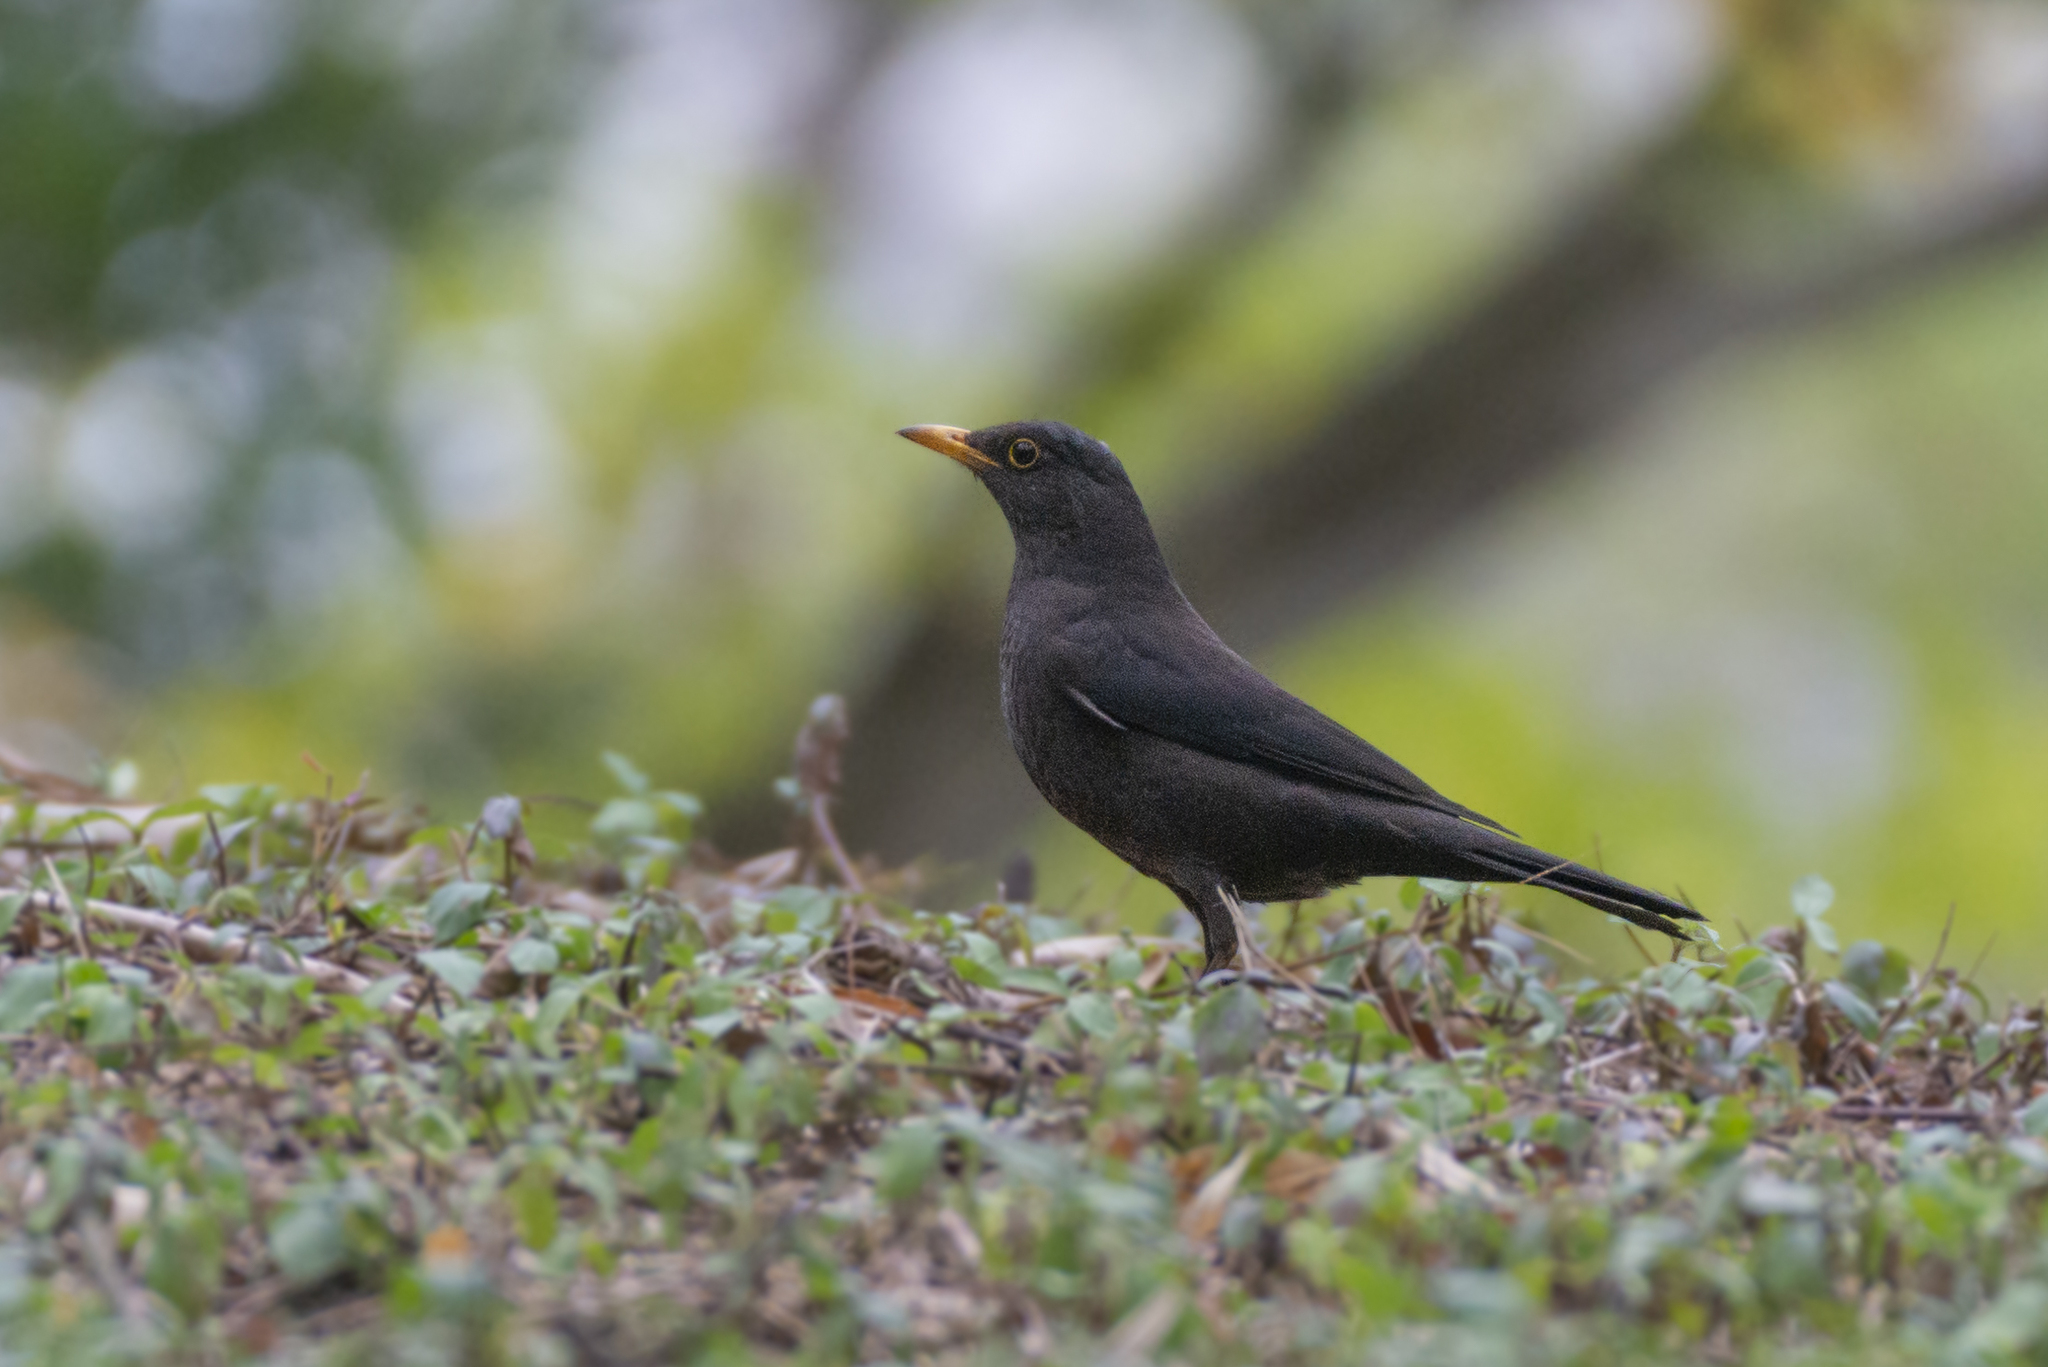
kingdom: Animalia
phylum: Chordata
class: Aves
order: Passeriformes
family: Turdidae
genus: Turdus
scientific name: Turdus mandarinus
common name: Chinese blackbird
